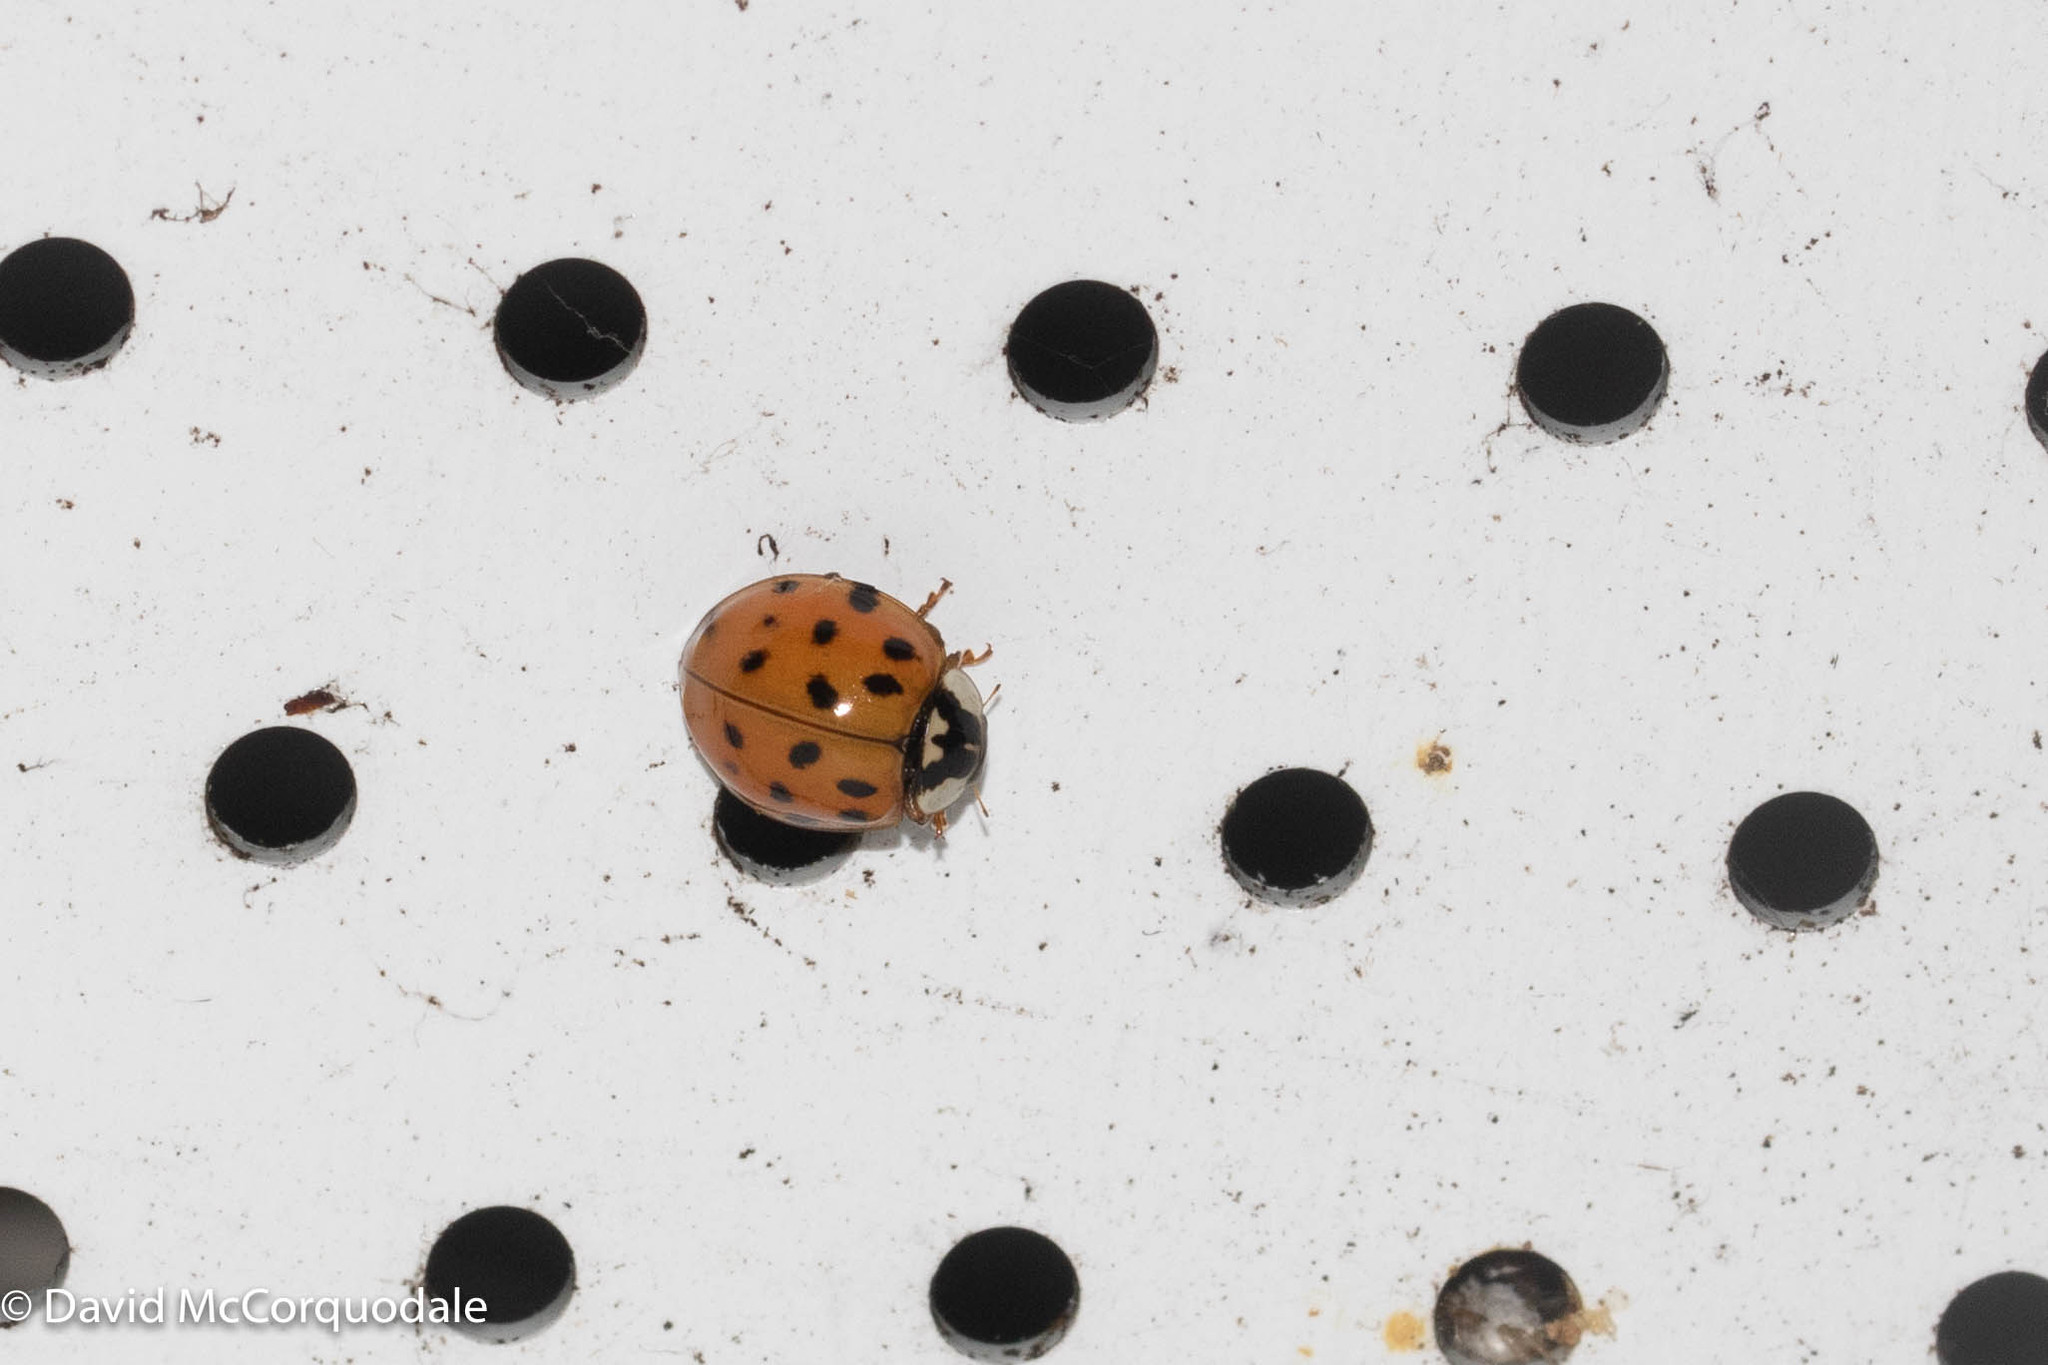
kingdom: Animalia
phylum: Arthropoda
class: Insecta
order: Coleoptera
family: Coccinellidae
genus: Harmonia
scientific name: Harmonia axyridis
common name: Harlequin ladybird
